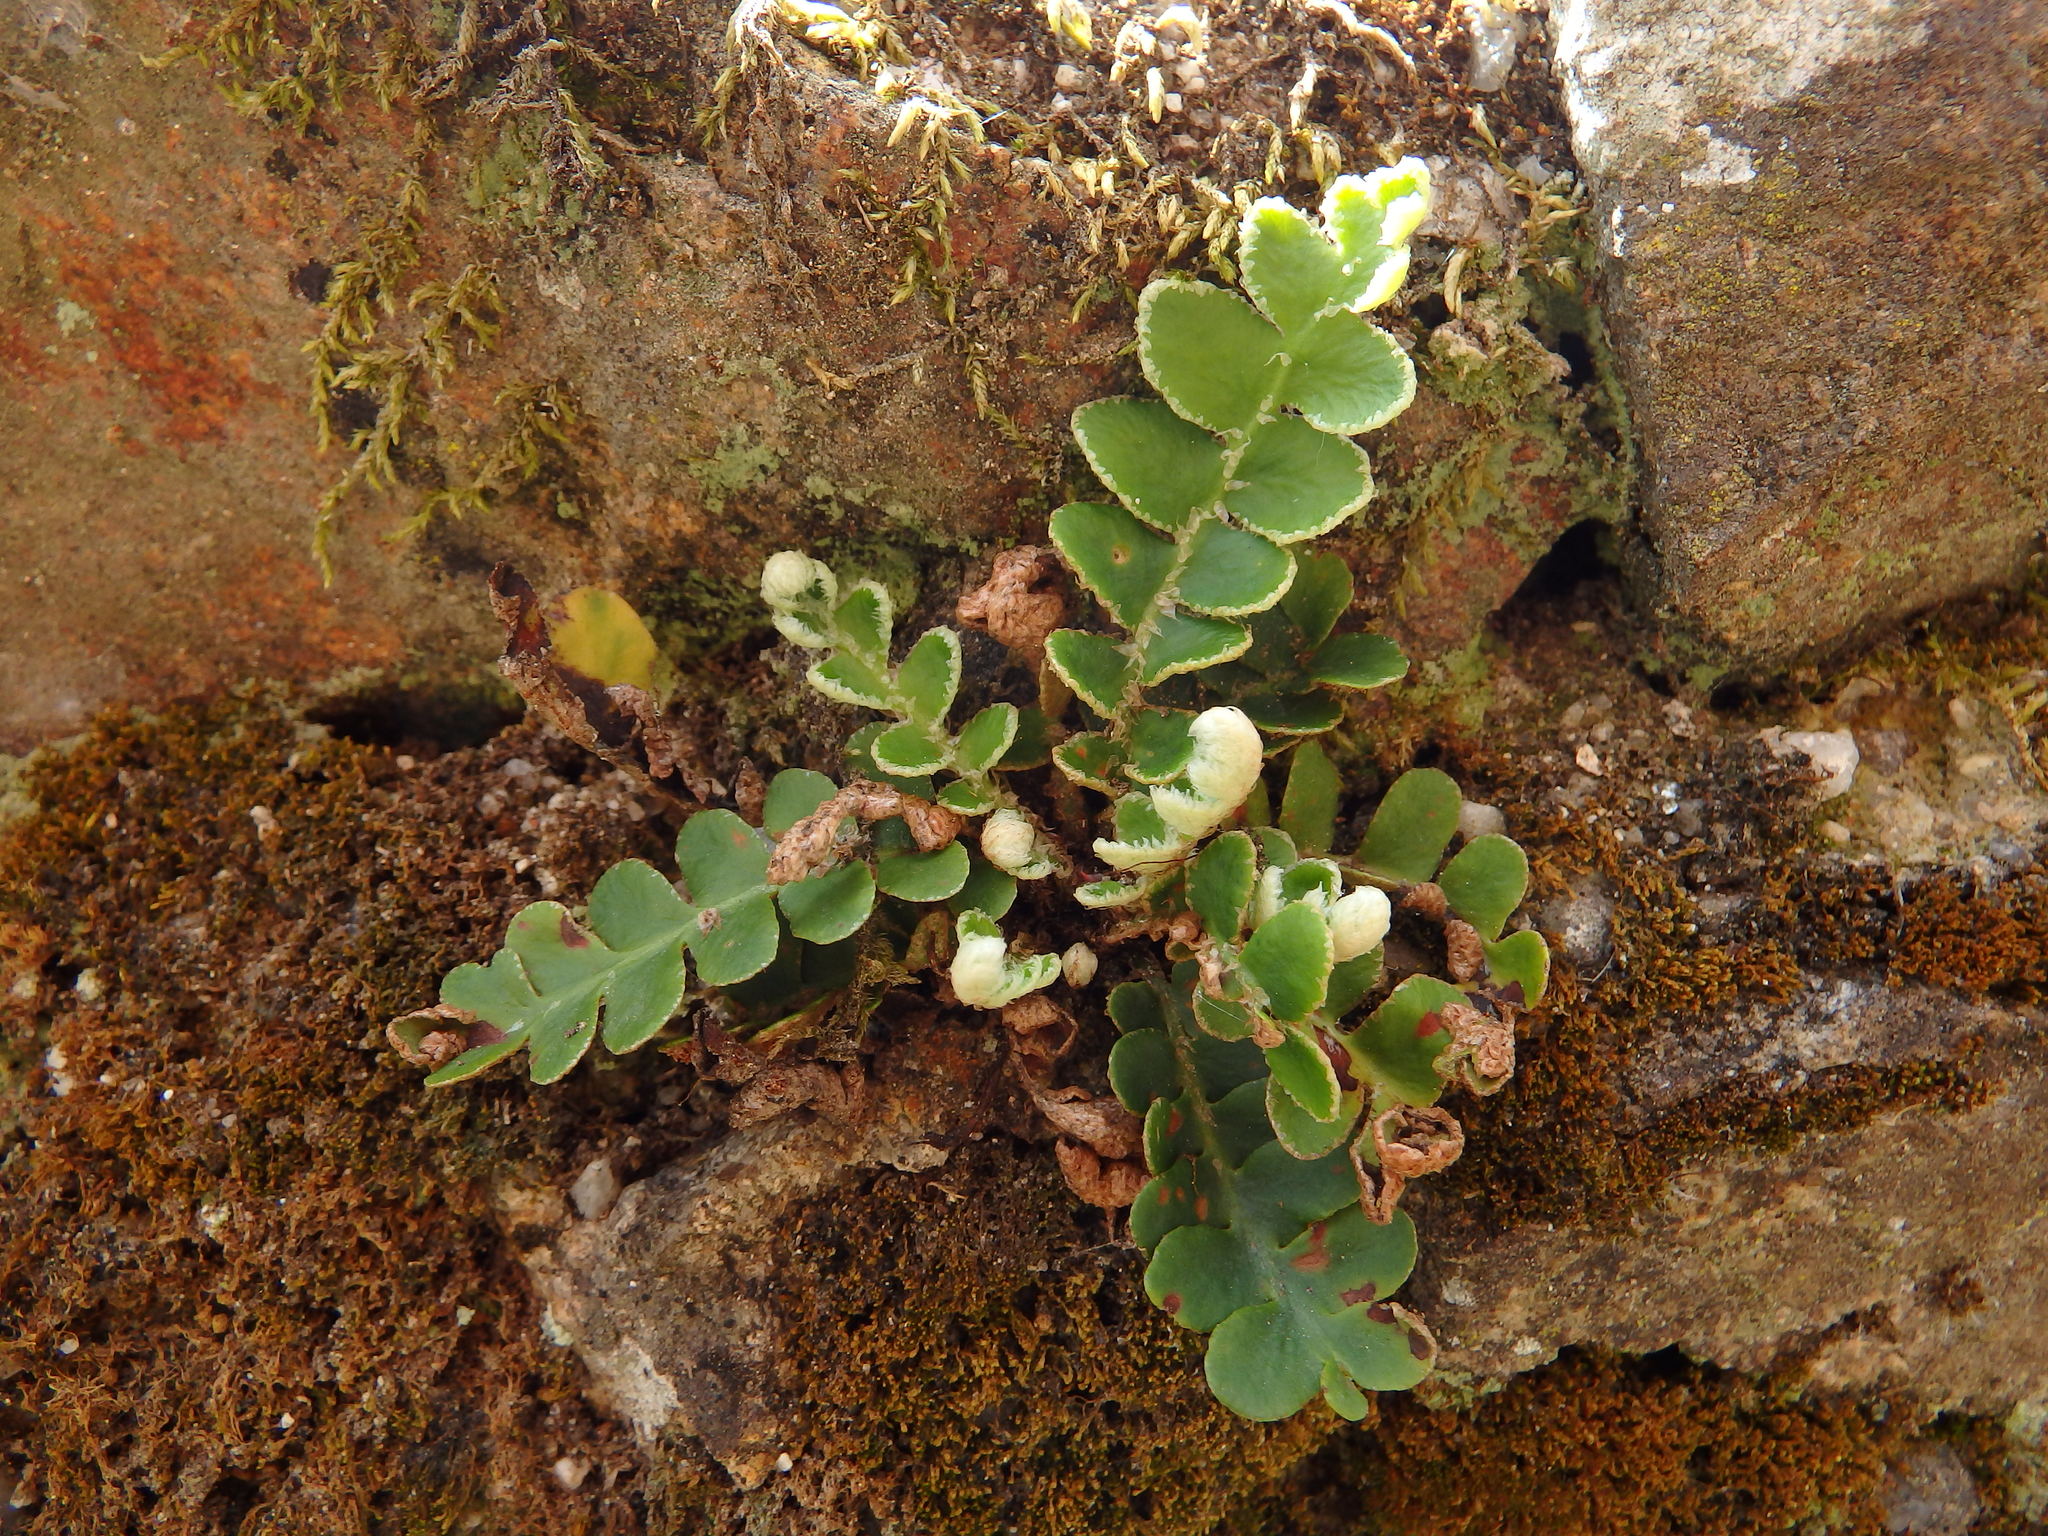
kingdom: Plantae
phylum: Tracheophyta
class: Polypodiopsida
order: Polypodiales
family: Aspleniaceae
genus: Asplenium
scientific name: Asplenium ceterach
